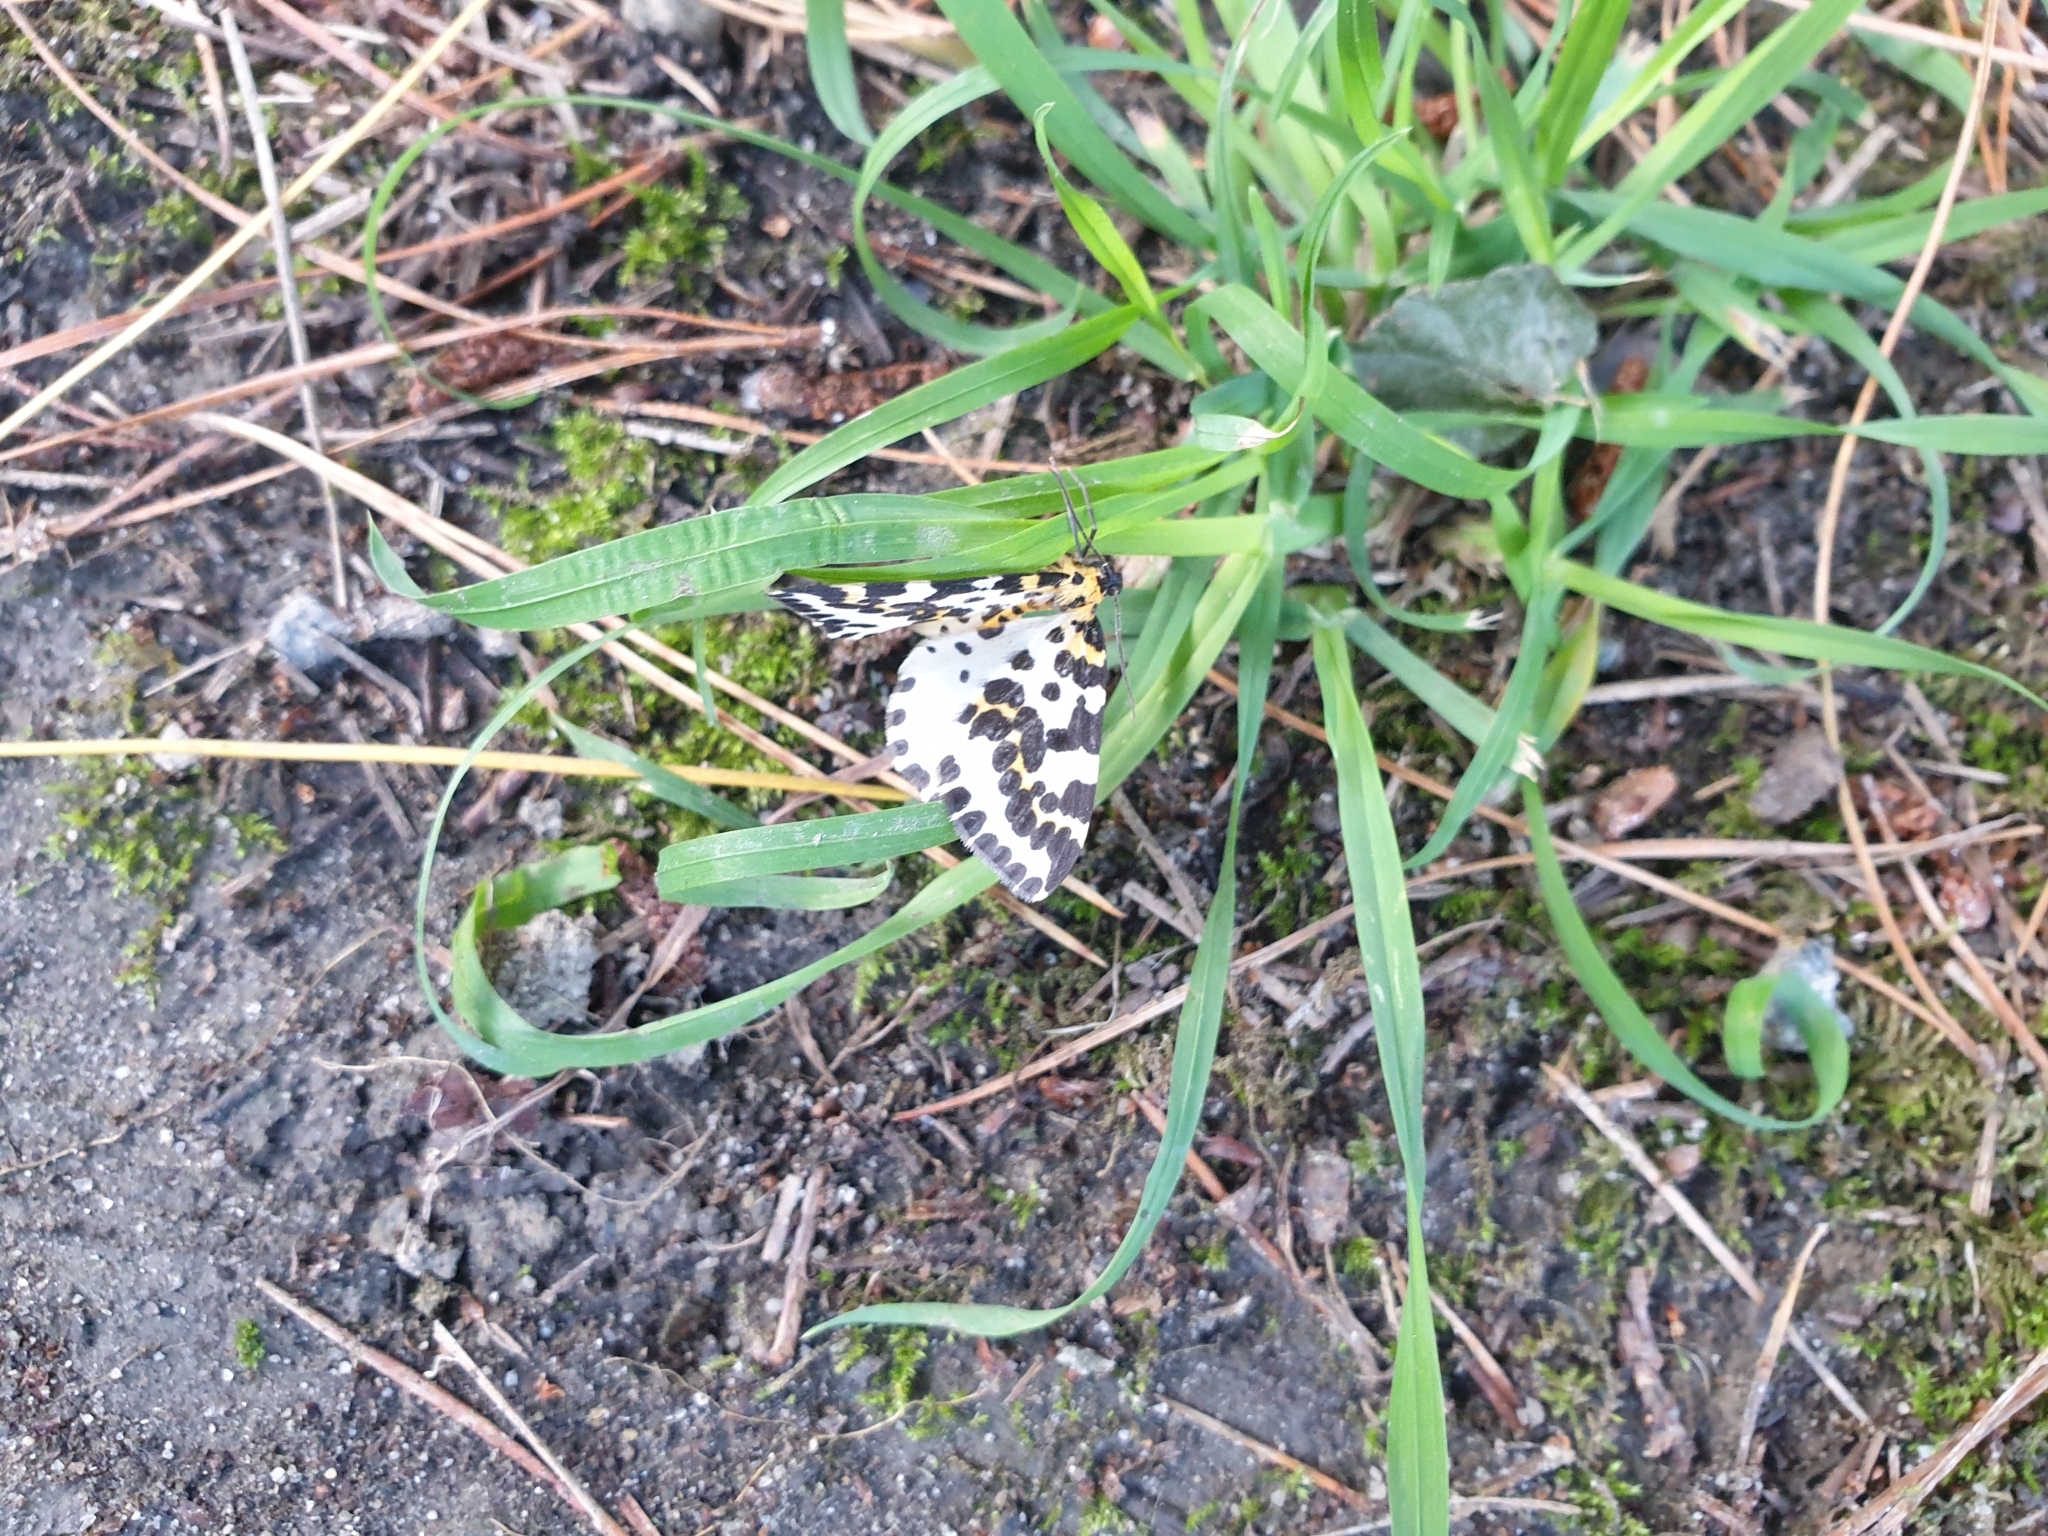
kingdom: Animalia
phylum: Arthropoda
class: Insecta
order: Lepidoptera
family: Geometridae
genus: Abraxas
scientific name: Abraxas grossulariata
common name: Magpie
